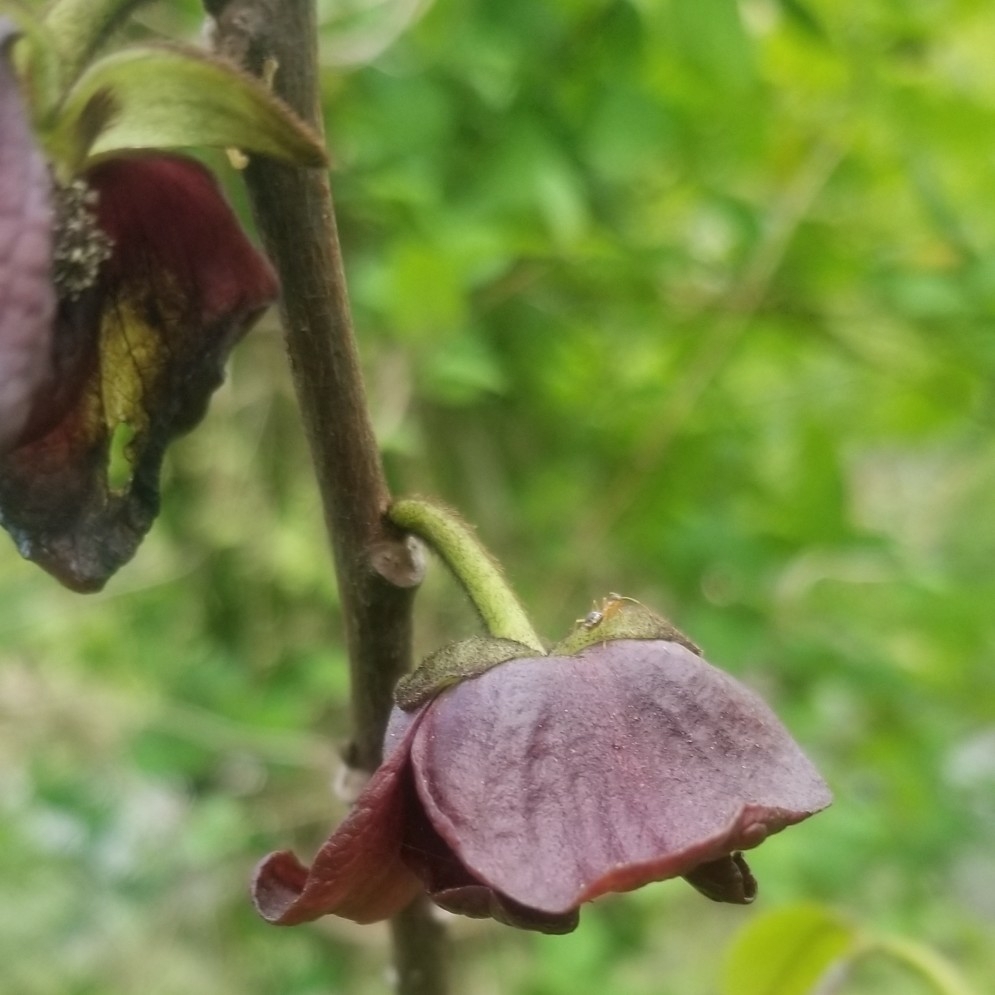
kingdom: Plantae
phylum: Tracheophyta
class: Magnoliopsida
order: Magnoliales
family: Annonaceae
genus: Asimina
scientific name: Asimina triloba
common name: Dog-banana
